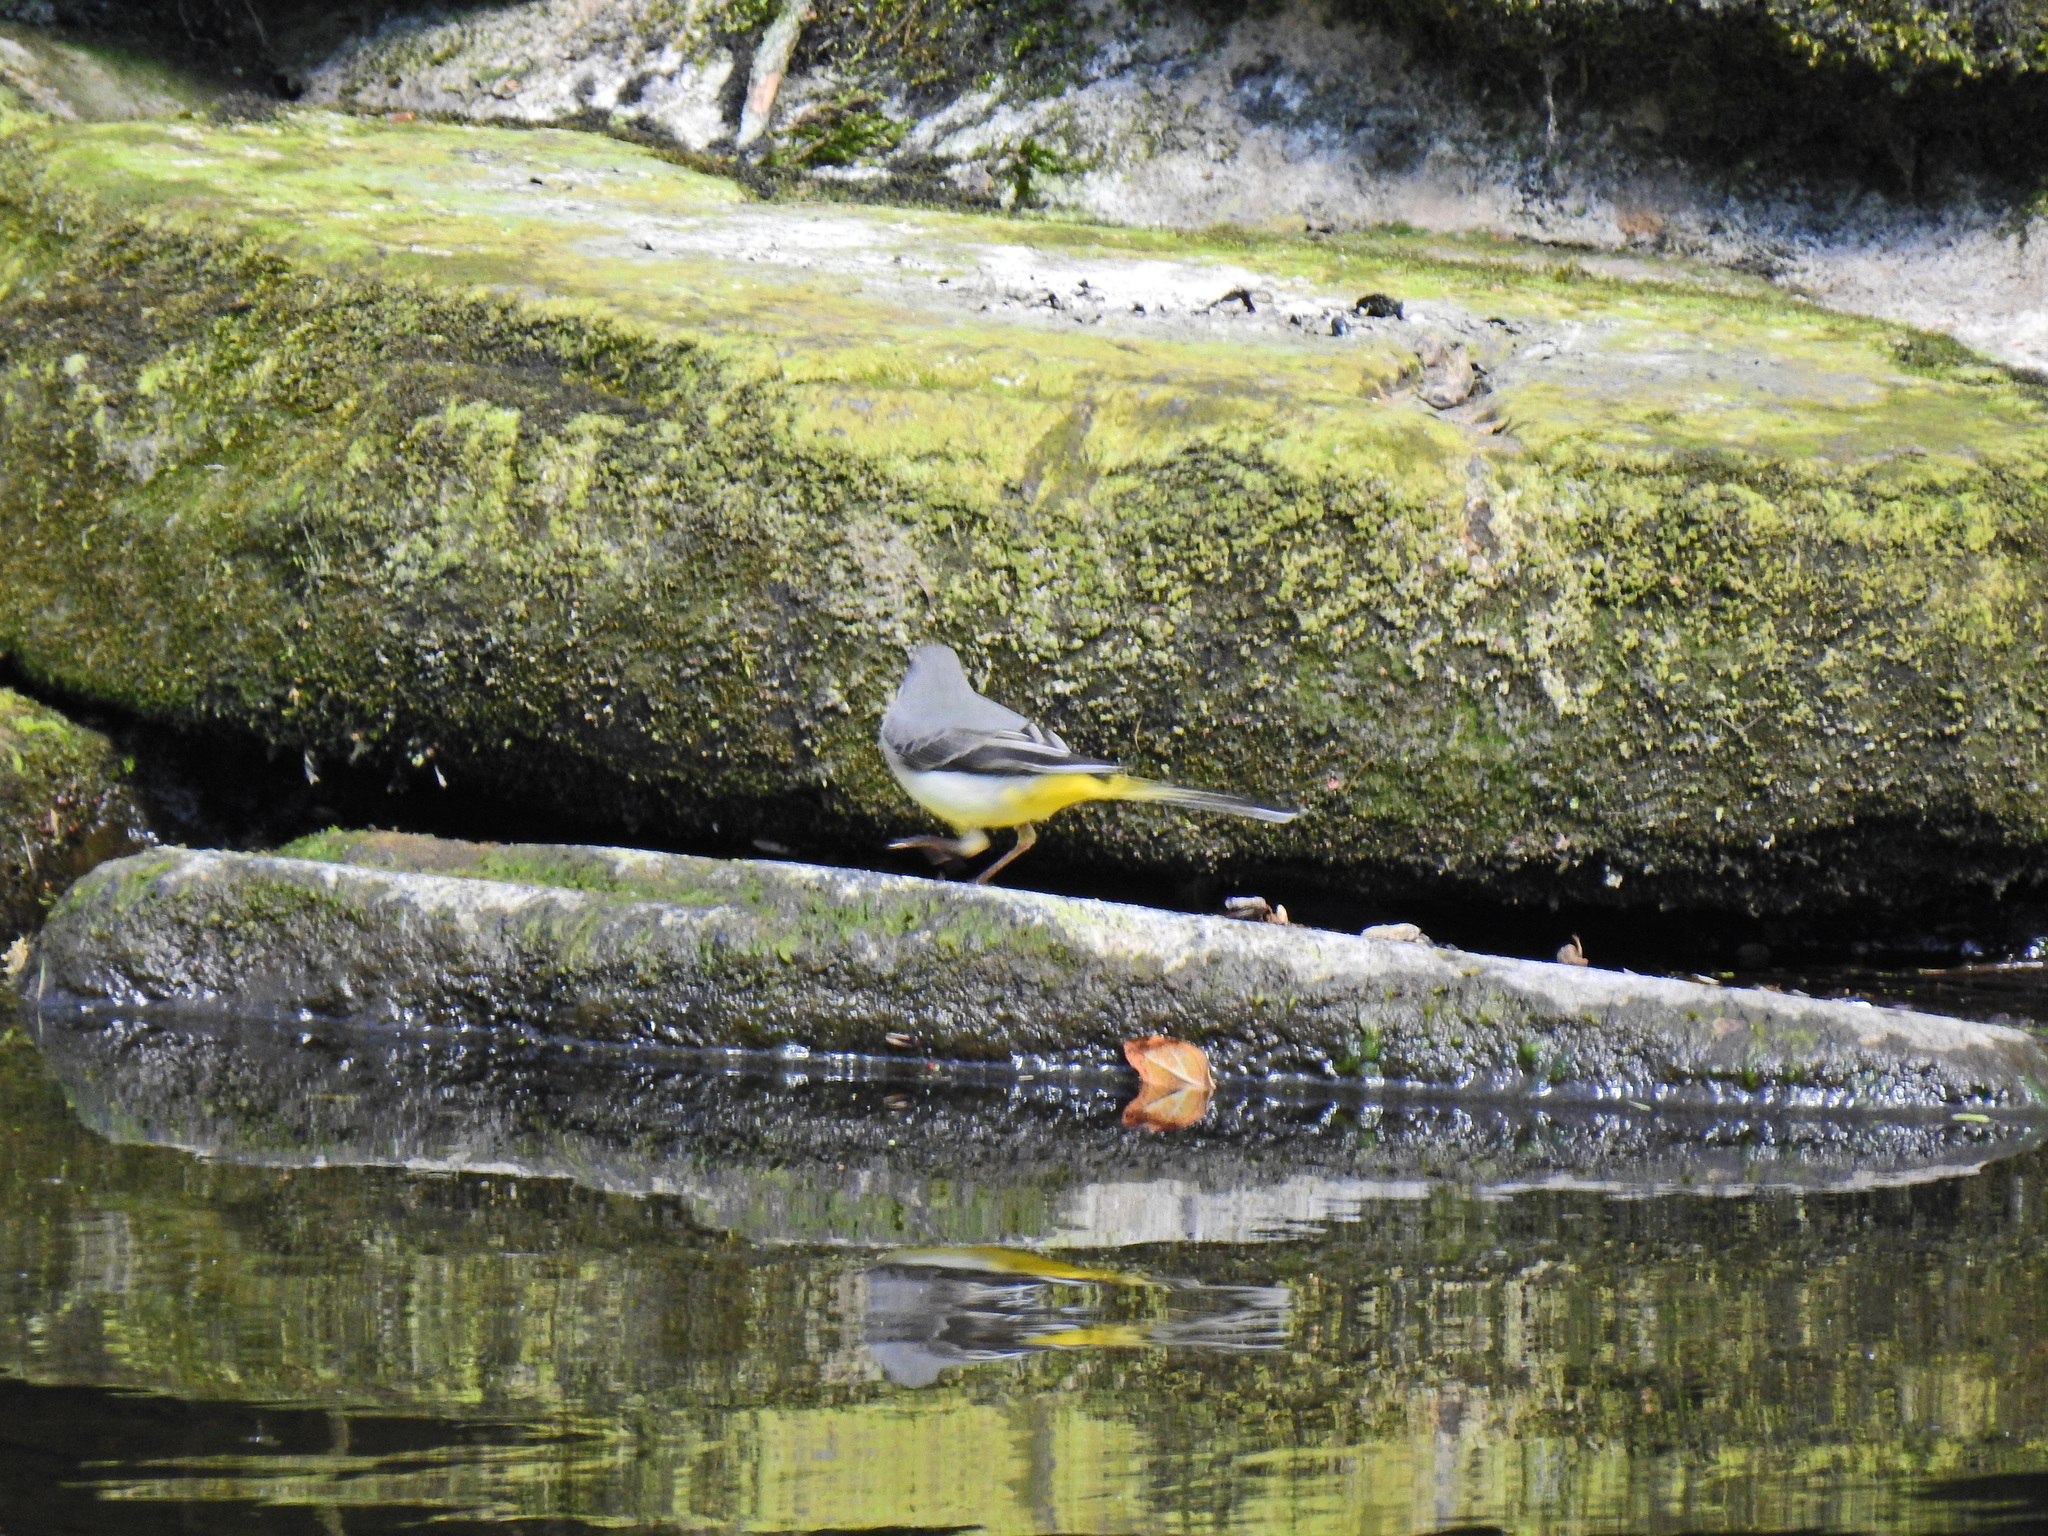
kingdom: Animalia
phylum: Chordata
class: Aves
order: Passeriformes
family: Motacillidae
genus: Motacilla
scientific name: Motacilla cinerea
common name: Grey wagtail
